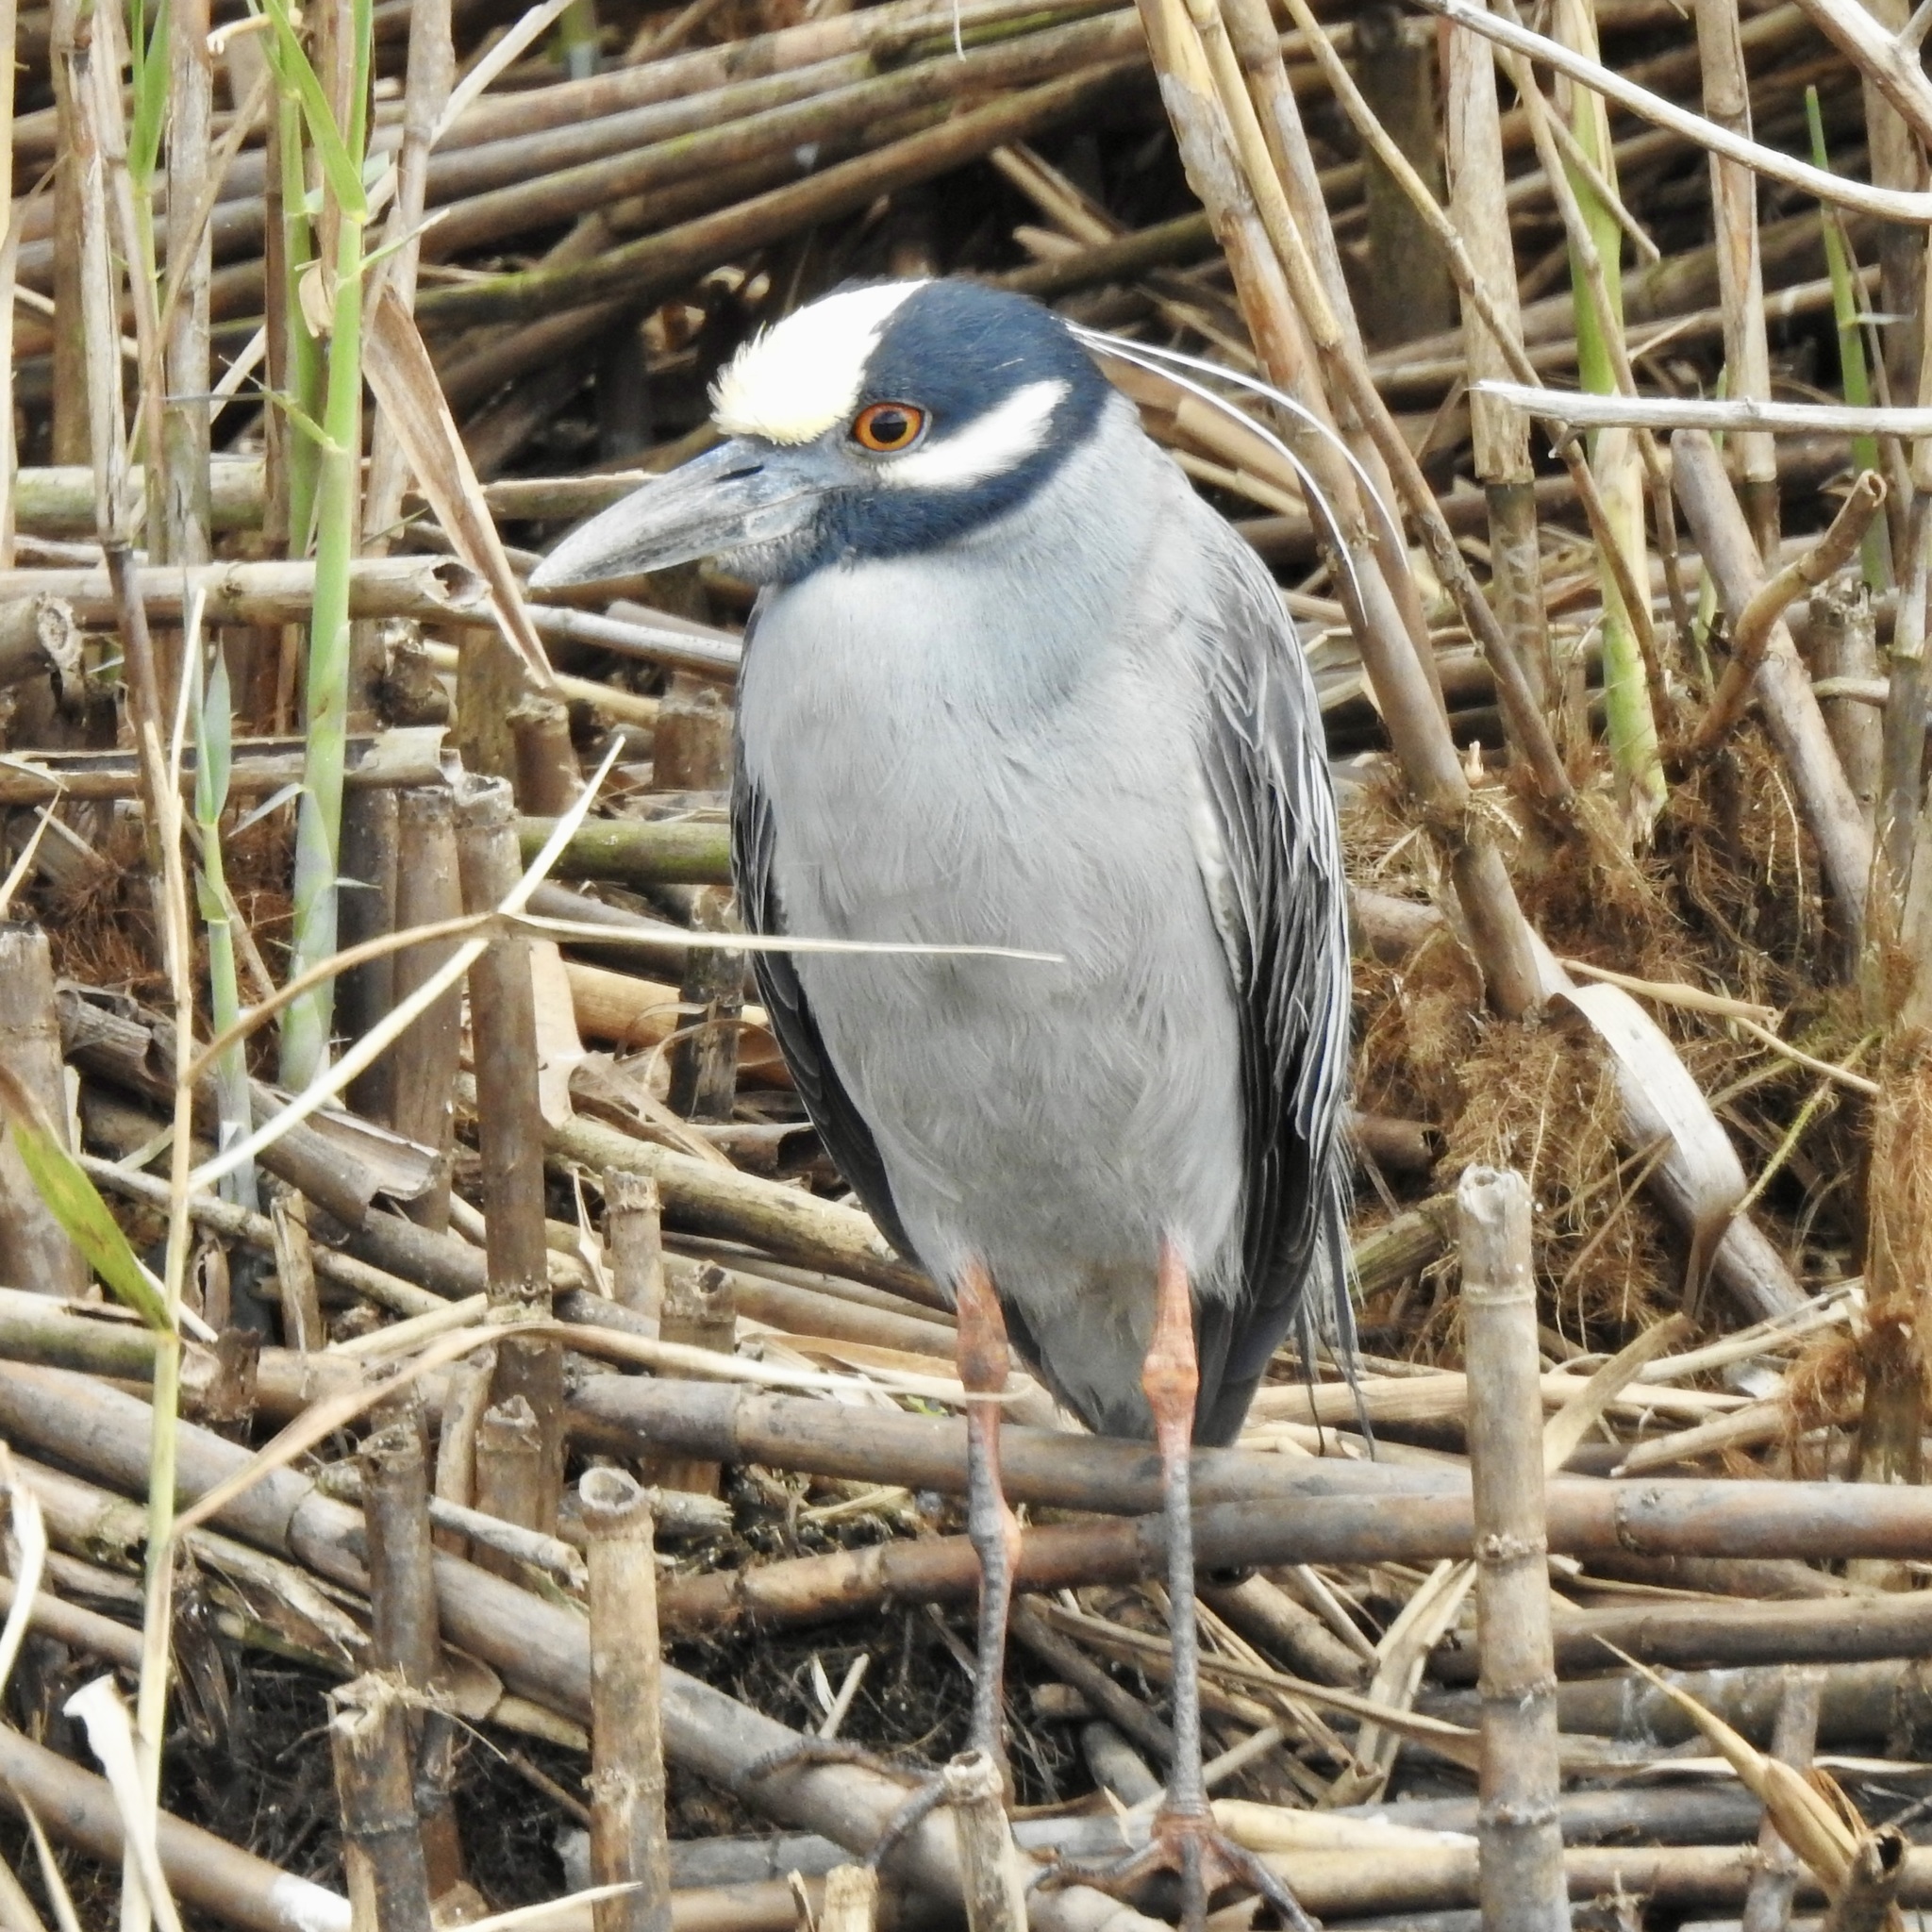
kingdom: Animalia
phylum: Chordata
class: Aves
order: Pelecaniformes
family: Ardeidae
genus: Nyctanassa
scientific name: Nyctanassa violacea
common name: Yellow-crowned night heron
